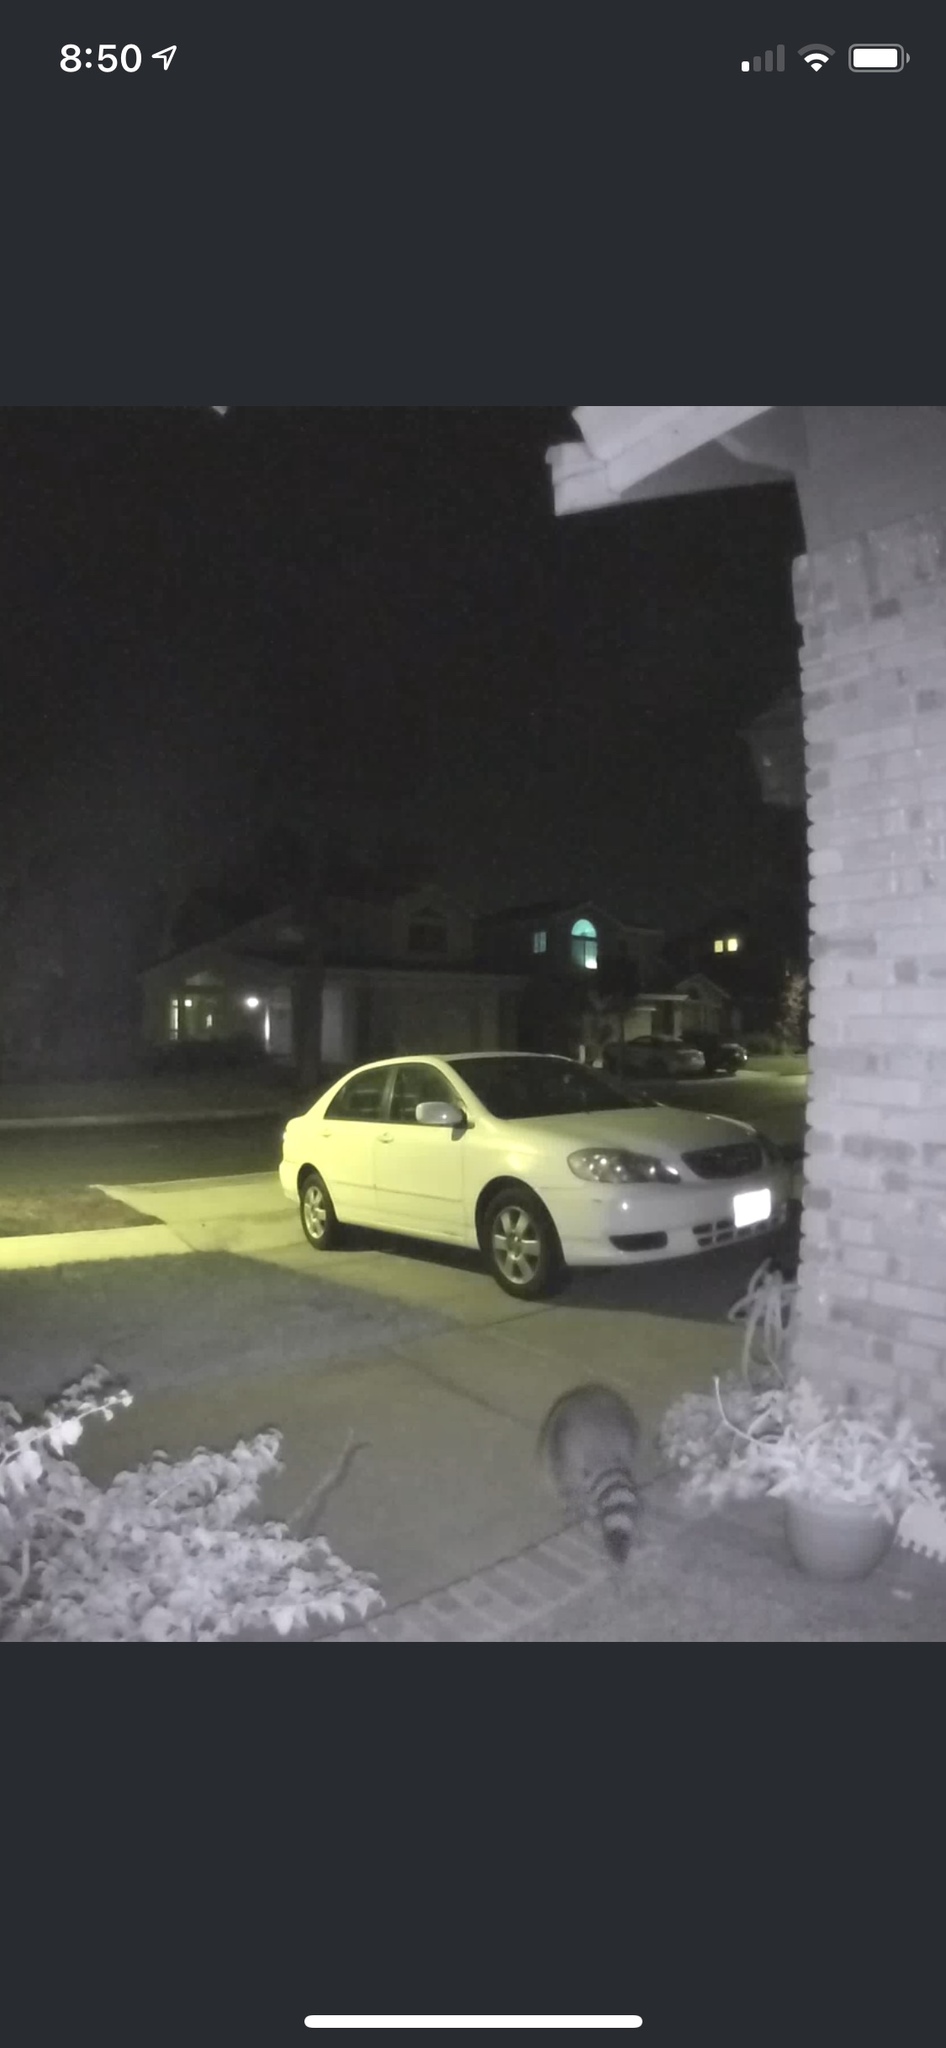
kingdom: Animalia
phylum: Chordata
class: Mammalia
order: Carnivora
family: Procyonidae
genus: Procyon
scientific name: Procyon lotor
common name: Raccoon
